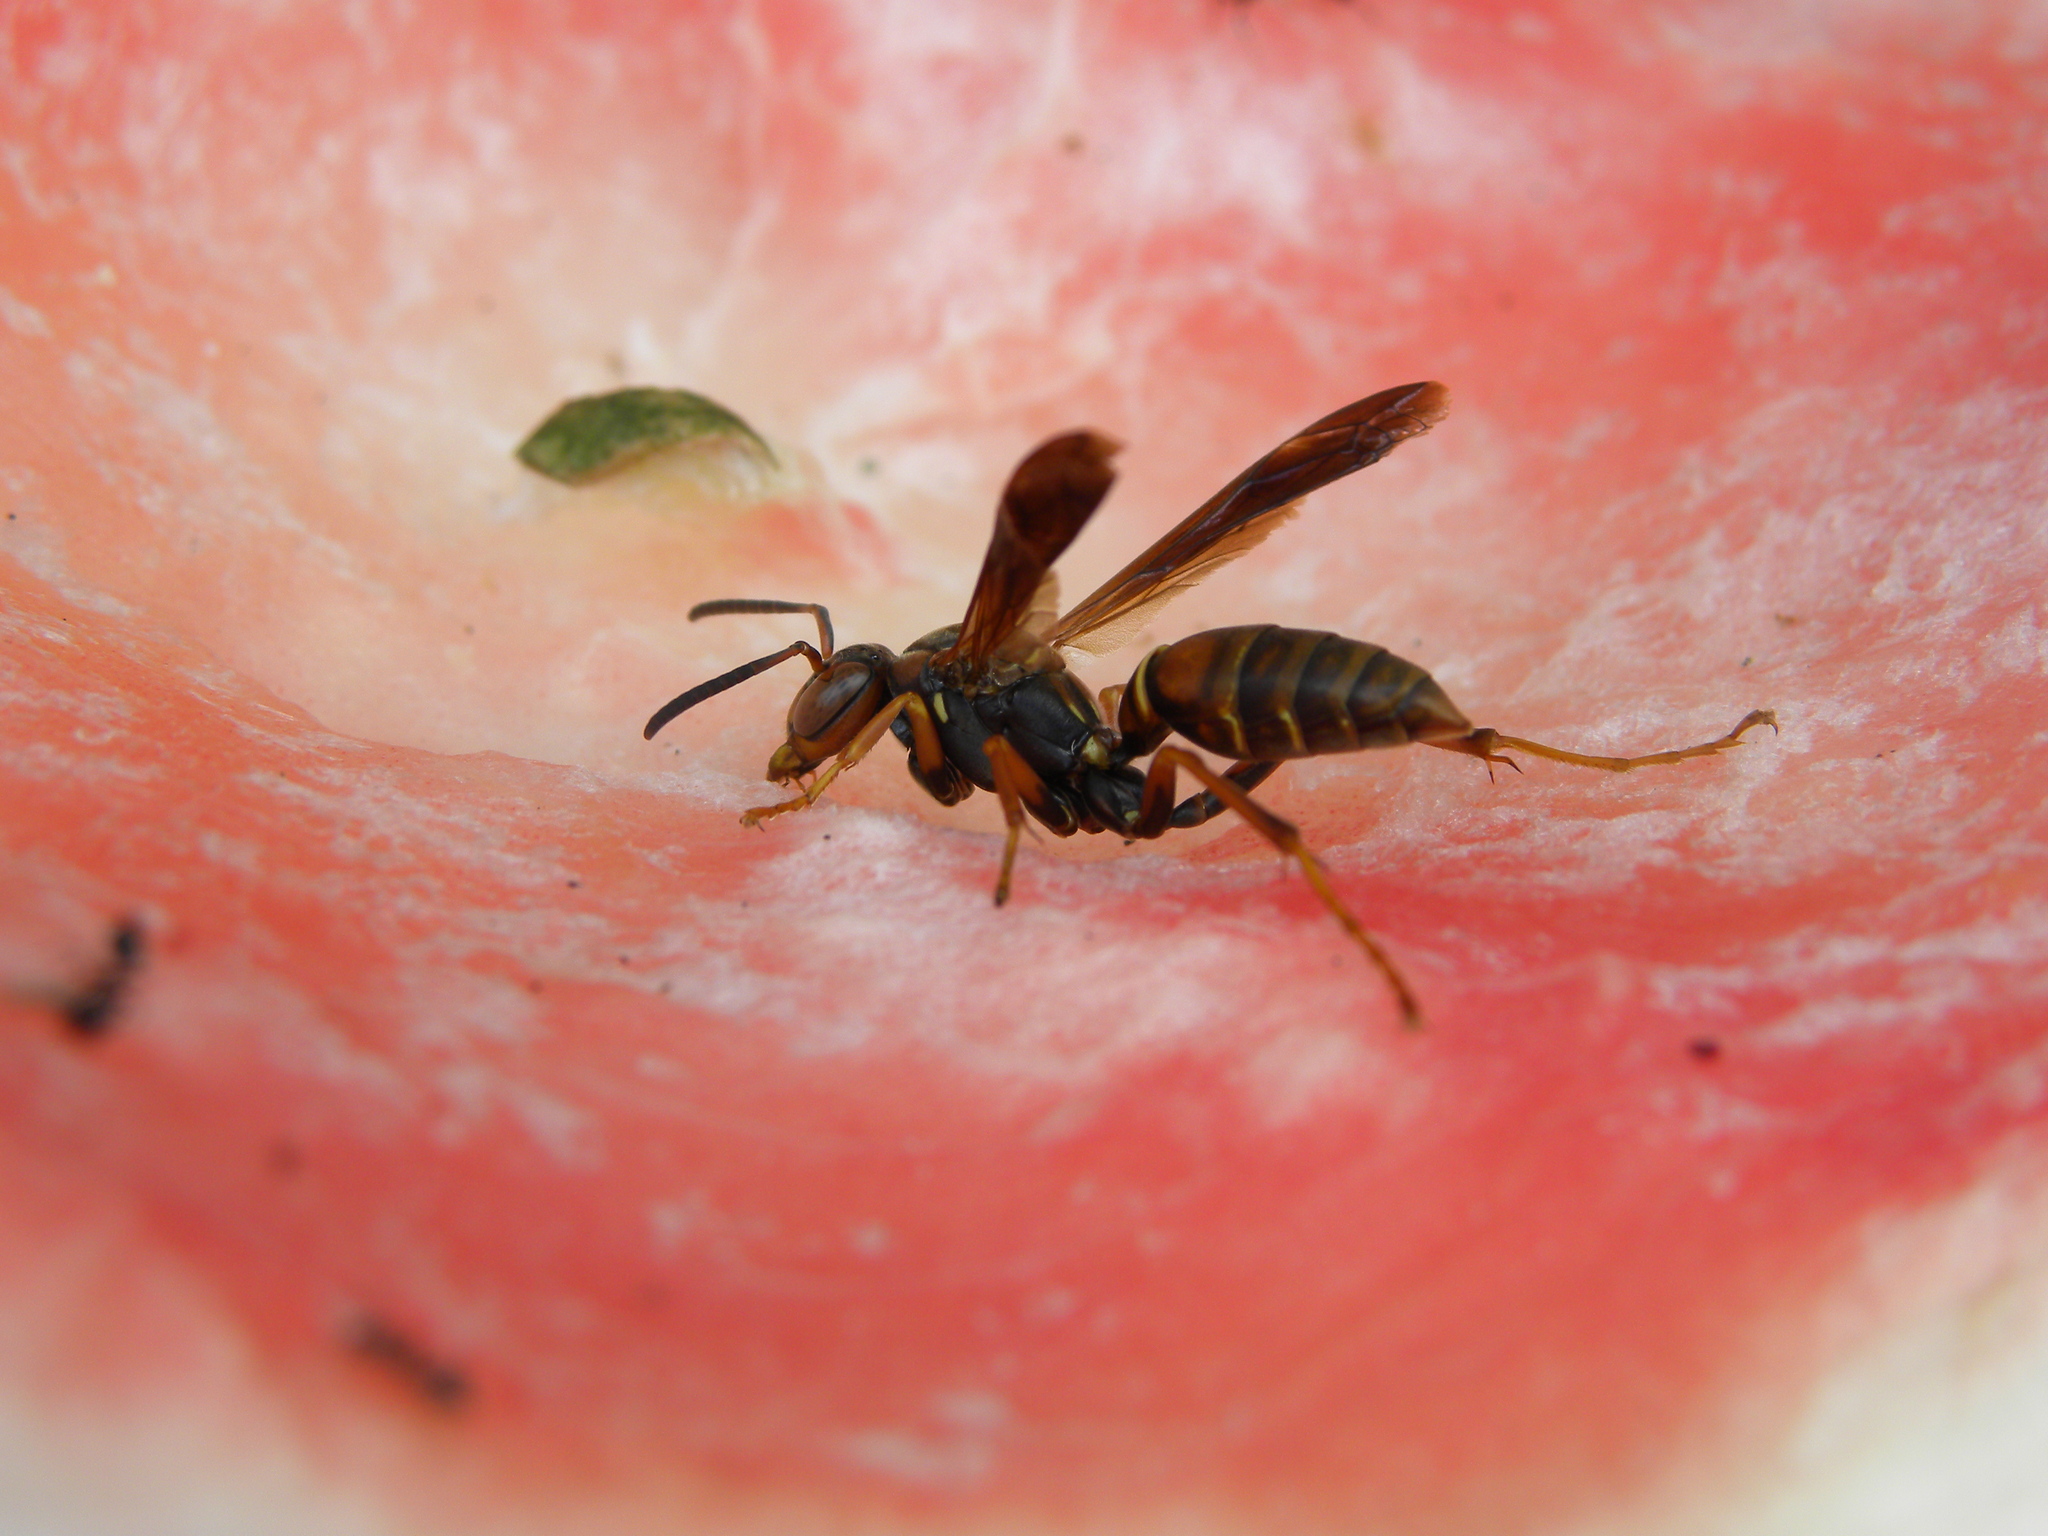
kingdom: Animalia
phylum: Arthropoda
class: Insecta
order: Hymenoptera
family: Eumenidae
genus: Polistes
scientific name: Polistes fuscatus
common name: Dark paper wasp
